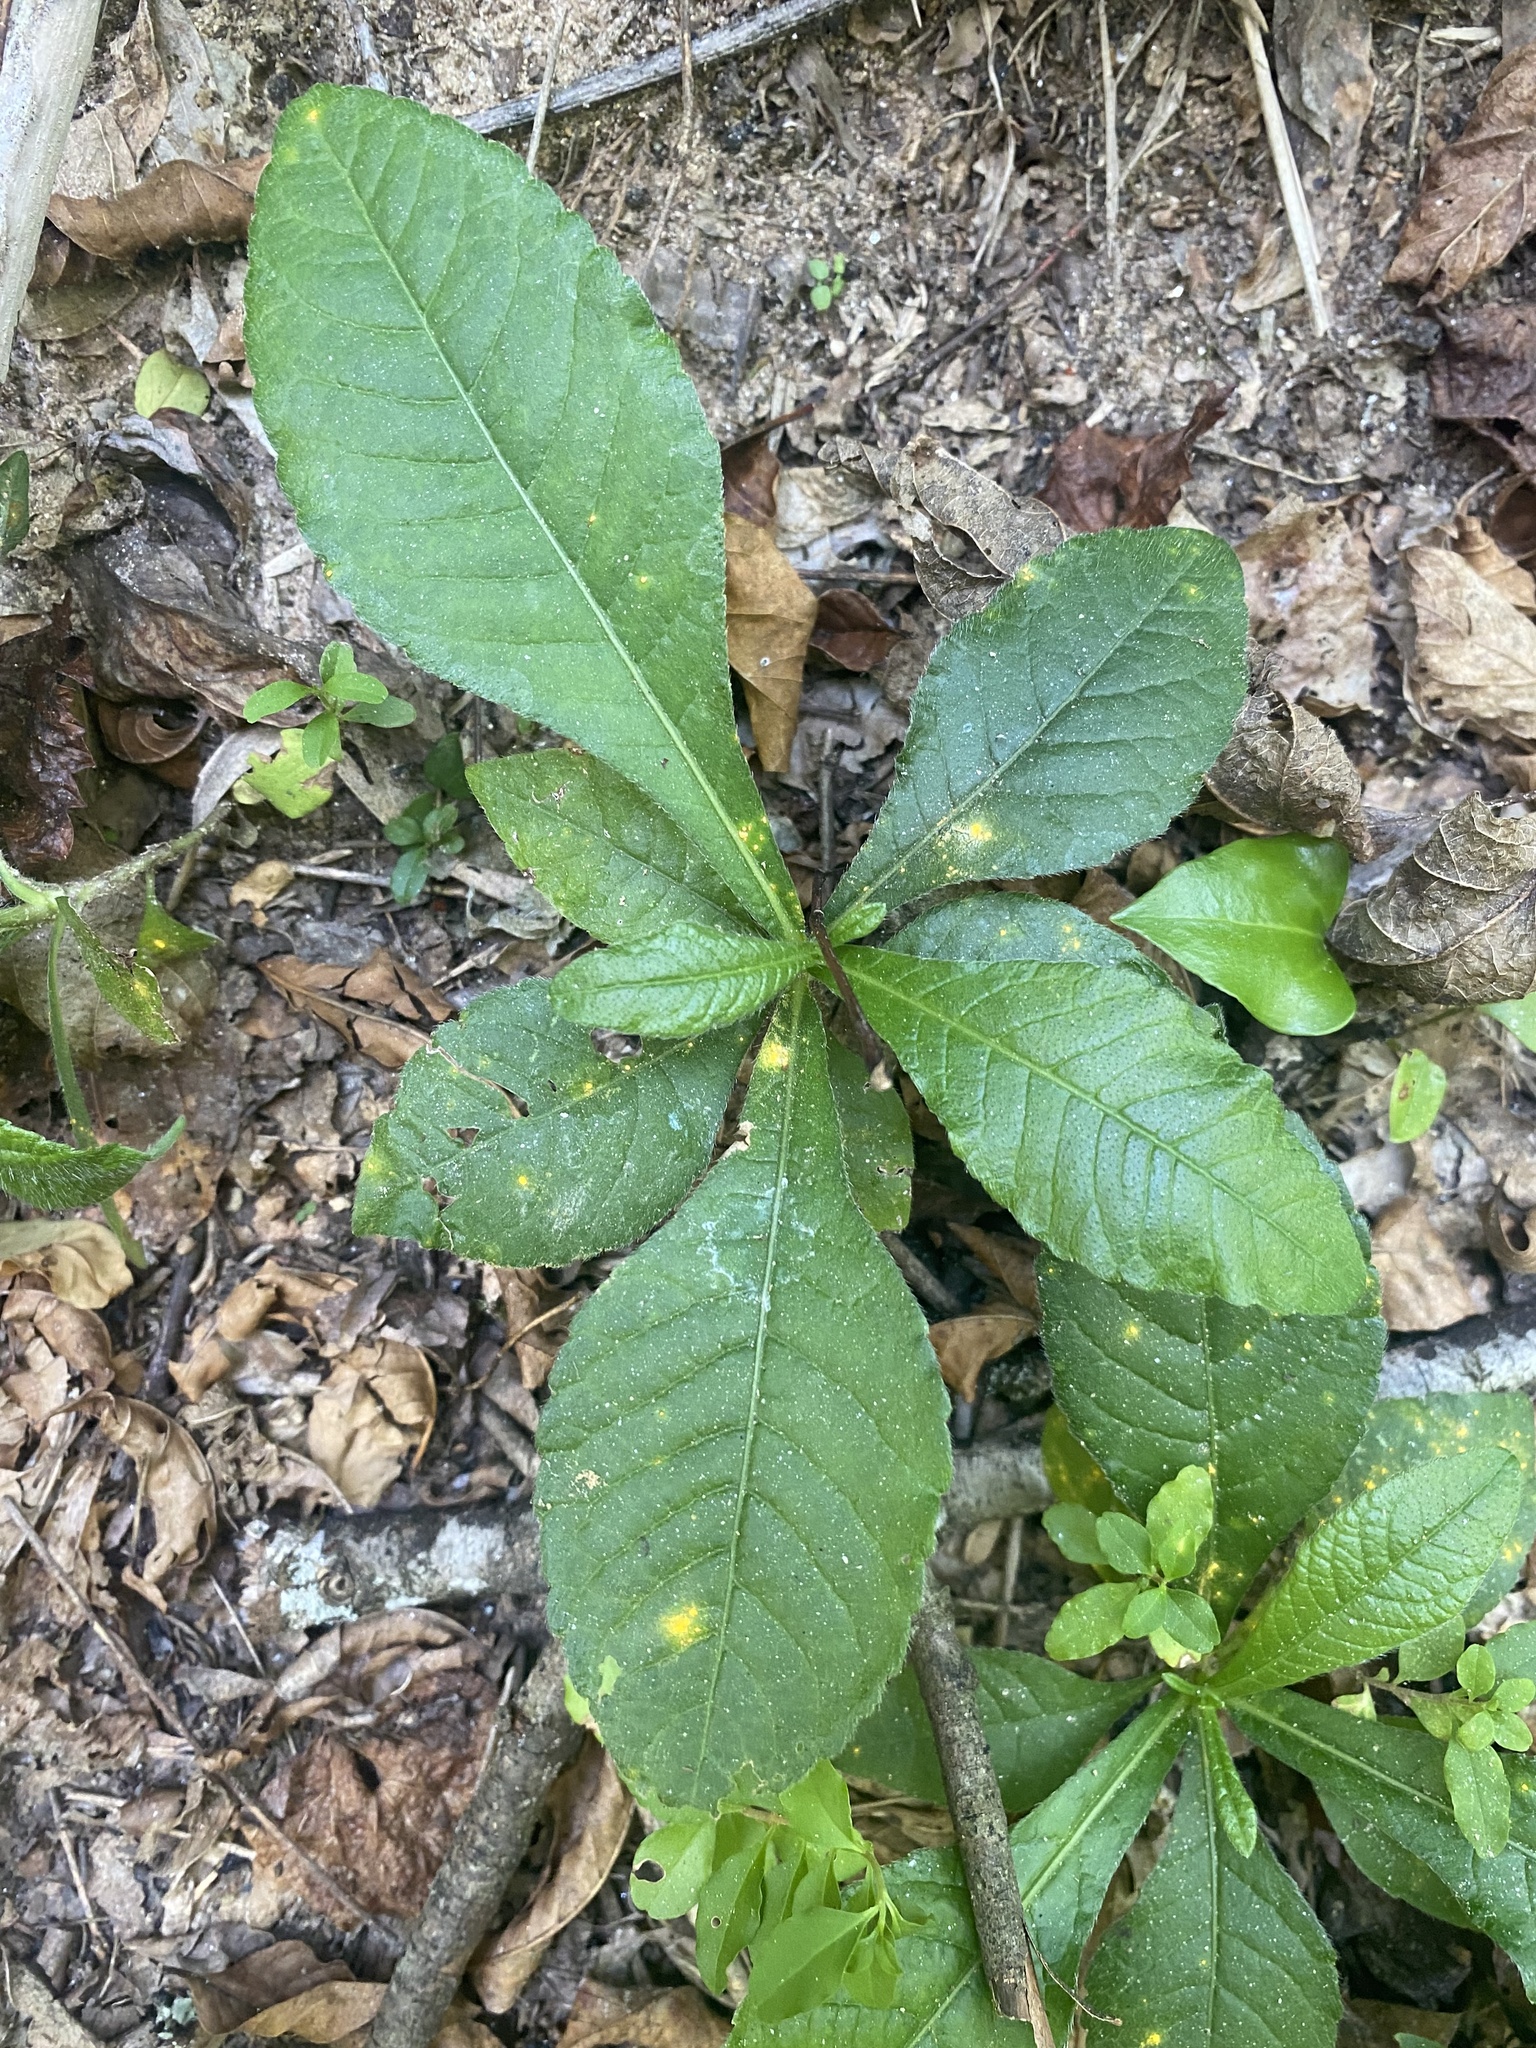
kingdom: Plantae
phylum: Tracheophyta
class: Magnoliopsida
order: Asterales
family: Asteraceae
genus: Elephantopus
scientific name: Elephantopus carolinianus
